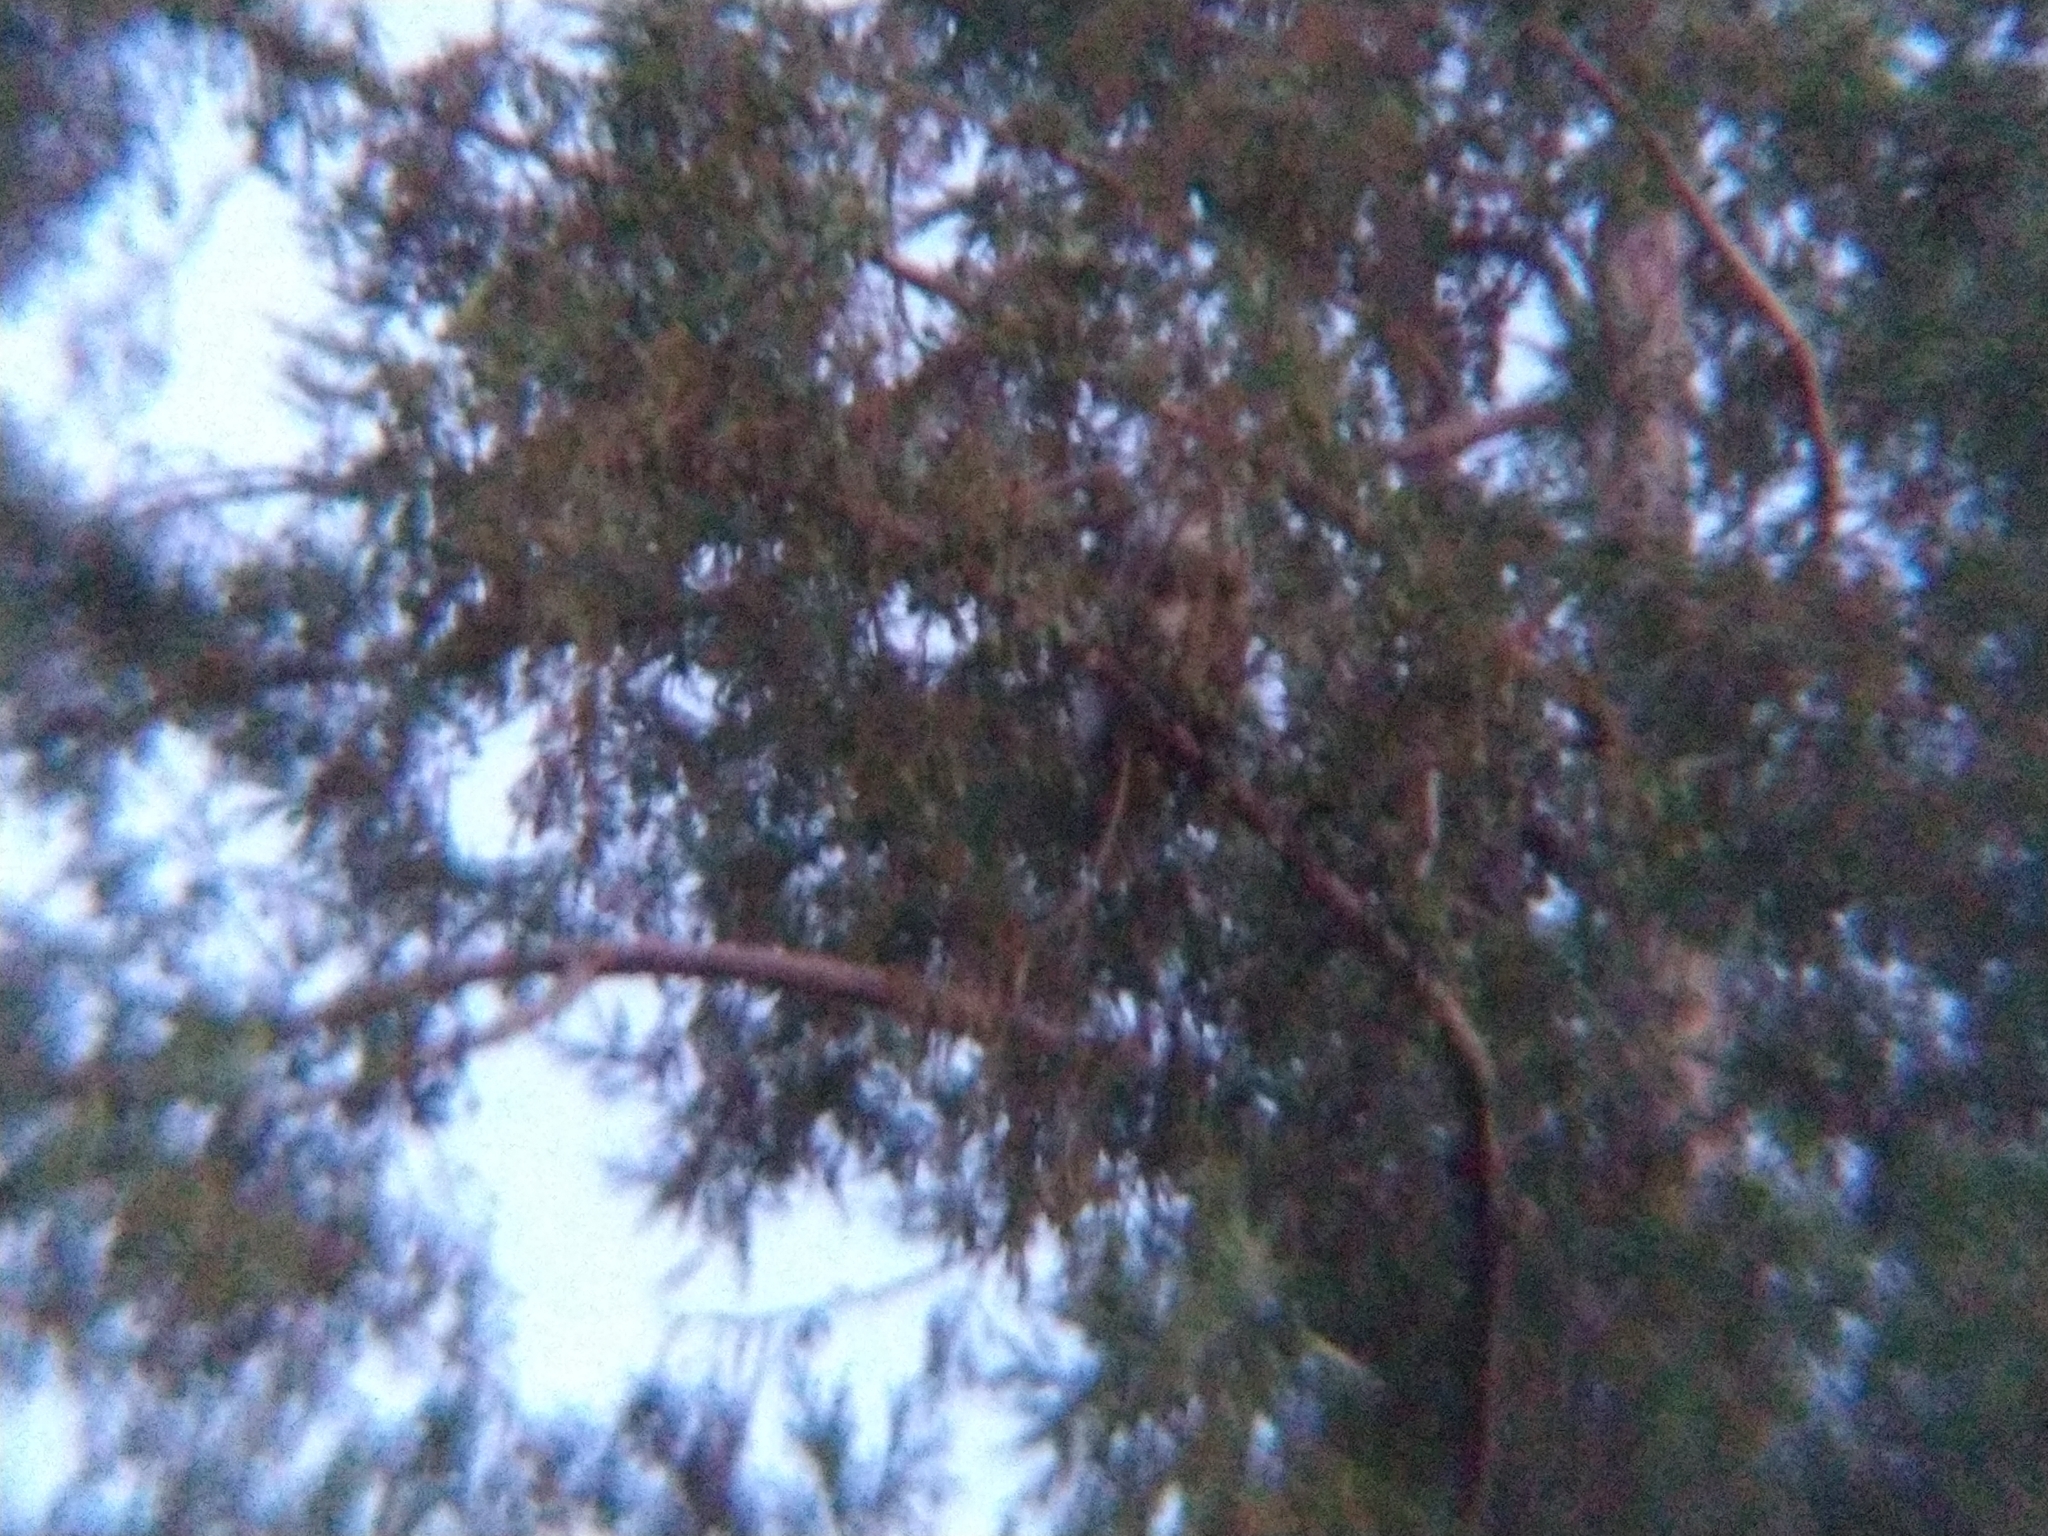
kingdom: Animalia
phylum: Chordata
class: Aves
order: Strigiformes
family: Strigidae
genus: Bubo
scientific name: Bubo virginianus
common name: Great horned owl
